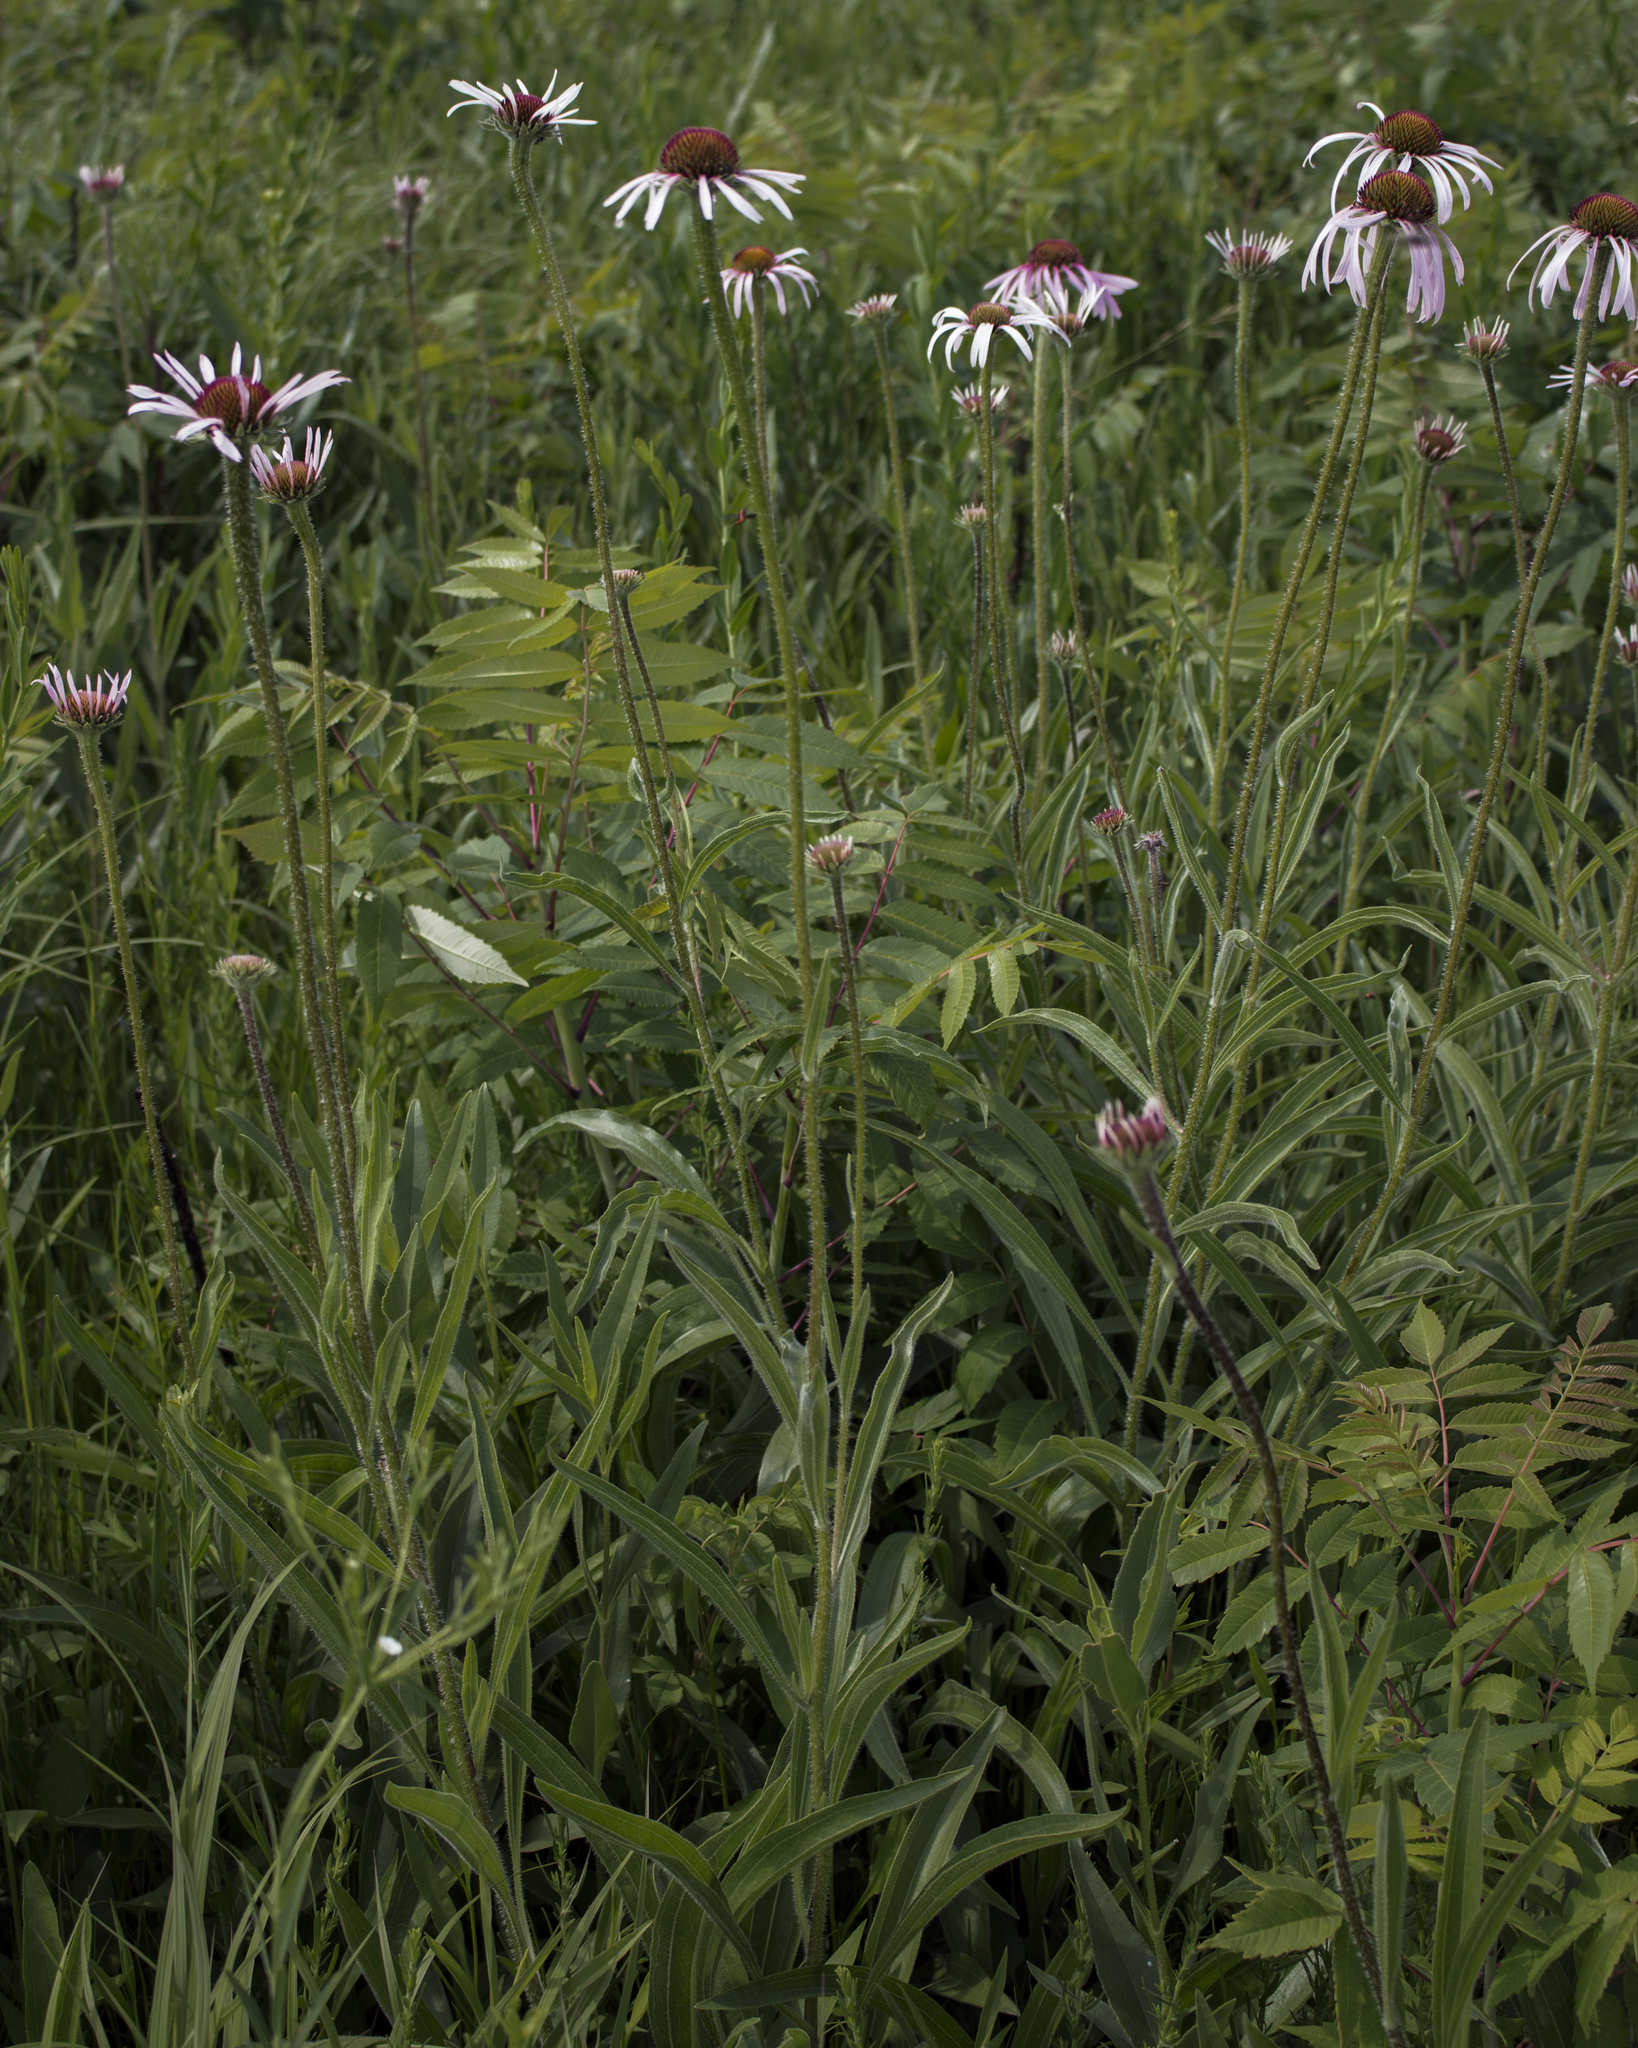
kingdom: Plantae
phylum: Tracheophyta
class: Magnoliopsida
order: Asterales
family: Asteraceae
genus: Echinacea
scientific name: Echinacea pallida
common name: Pale echinacea
